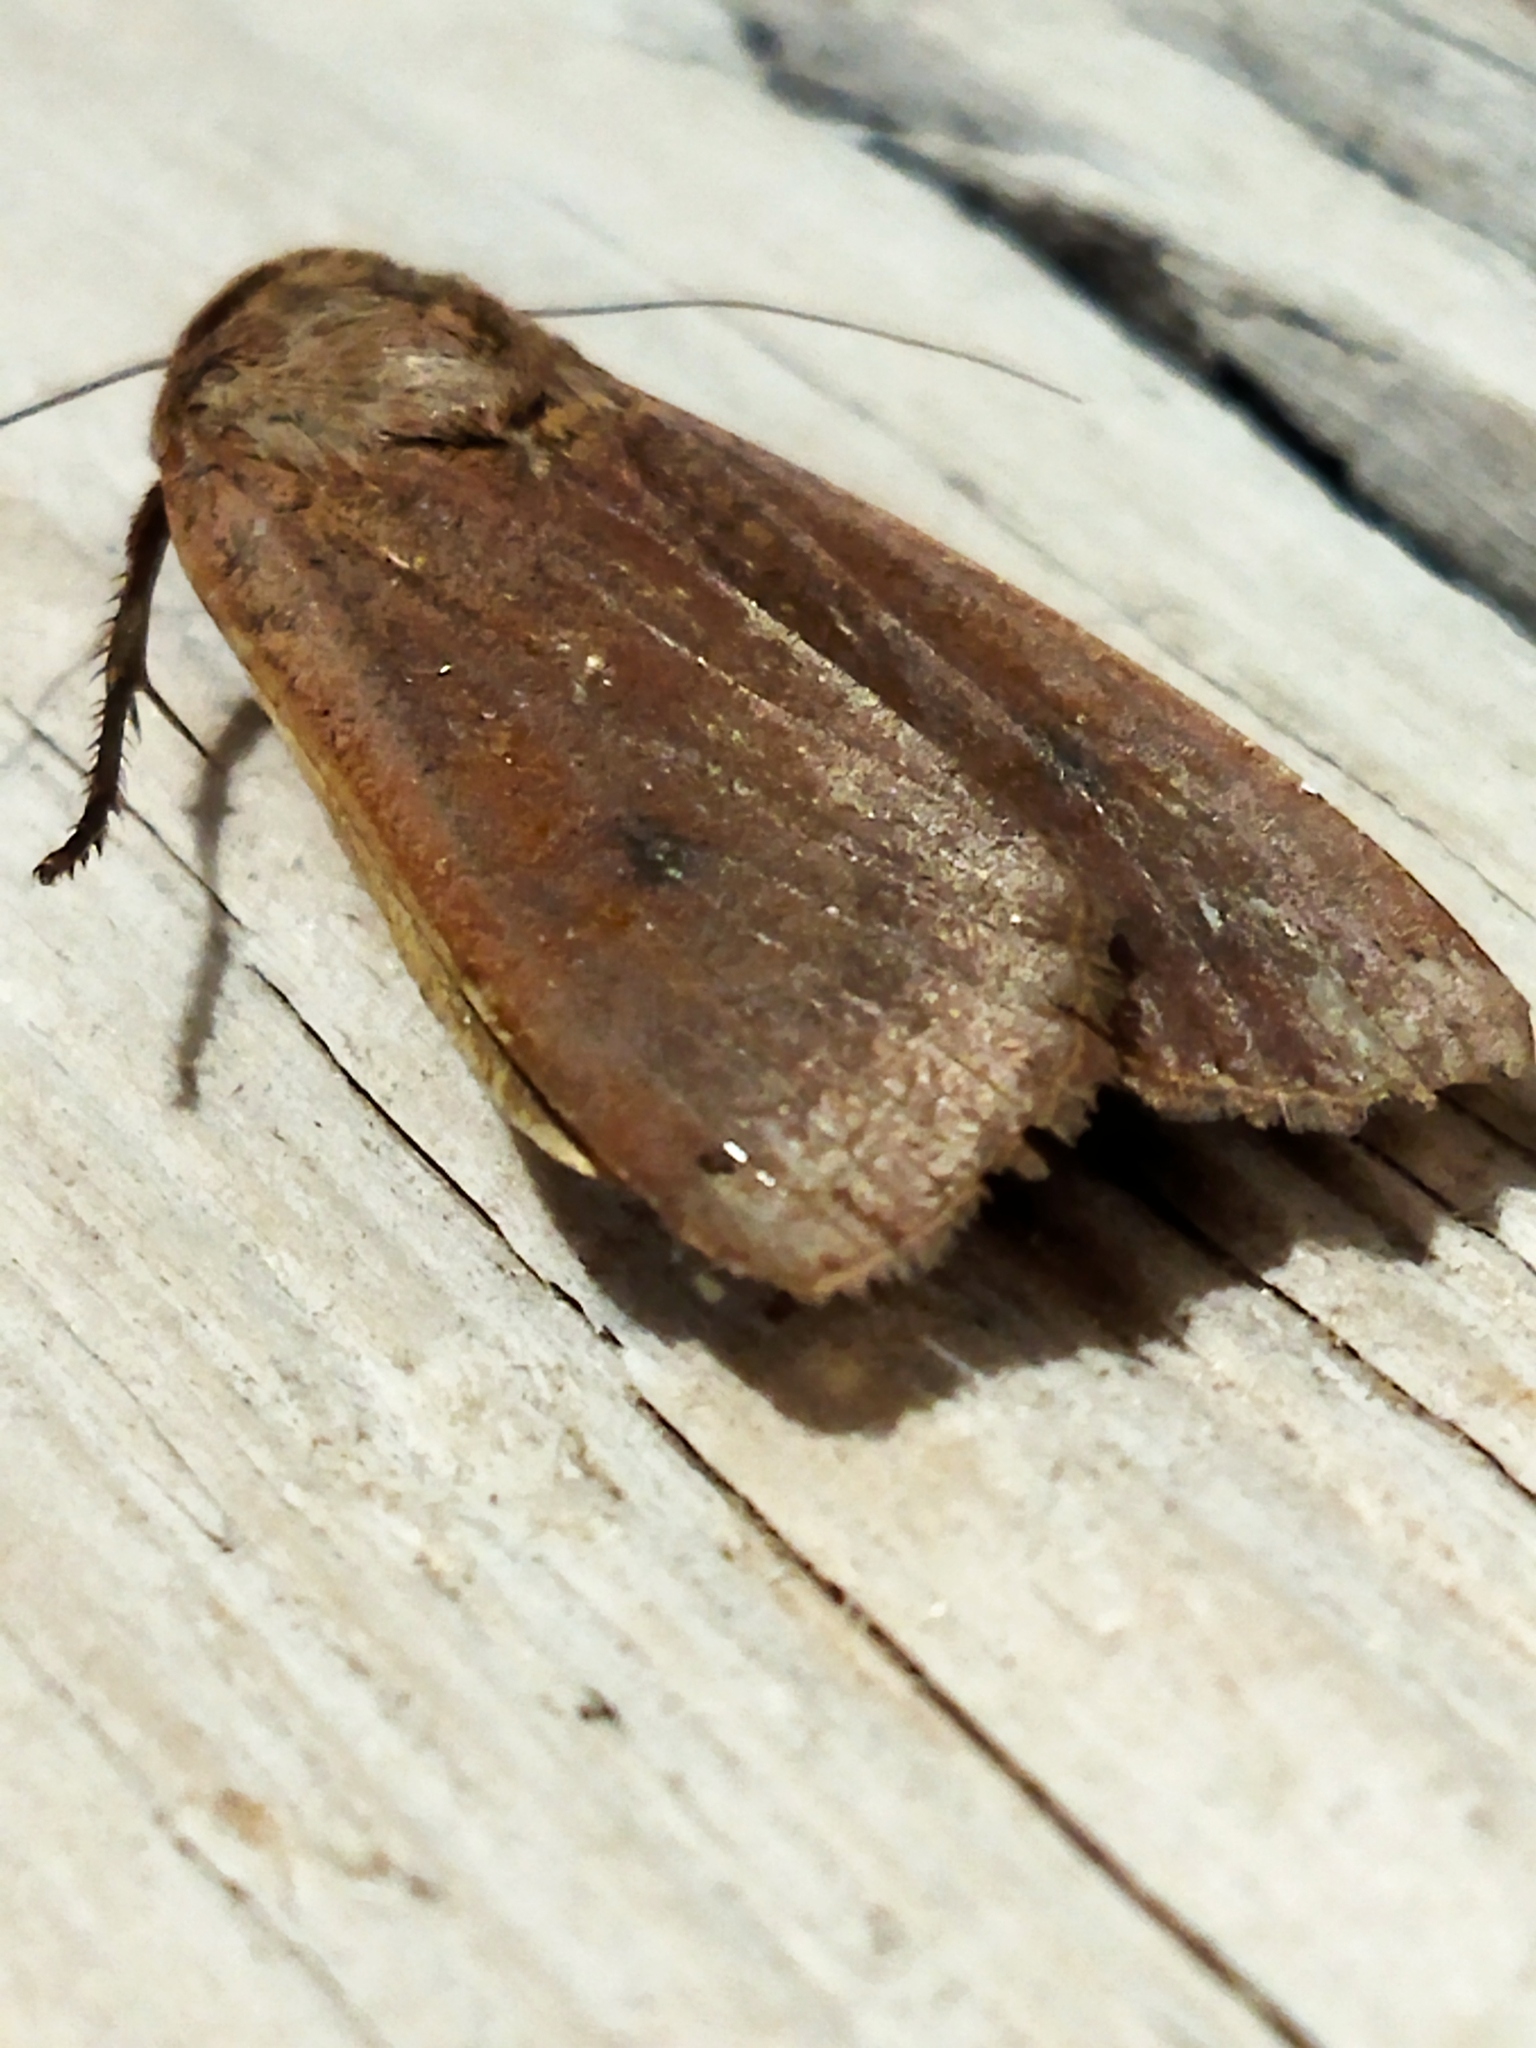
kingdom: Animalia
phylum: Arthropoda
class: Insecta
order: Lepidoptera
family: Noctuidae
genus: Noctua
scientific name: Noctua pronuba
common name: Large yellow underwing
